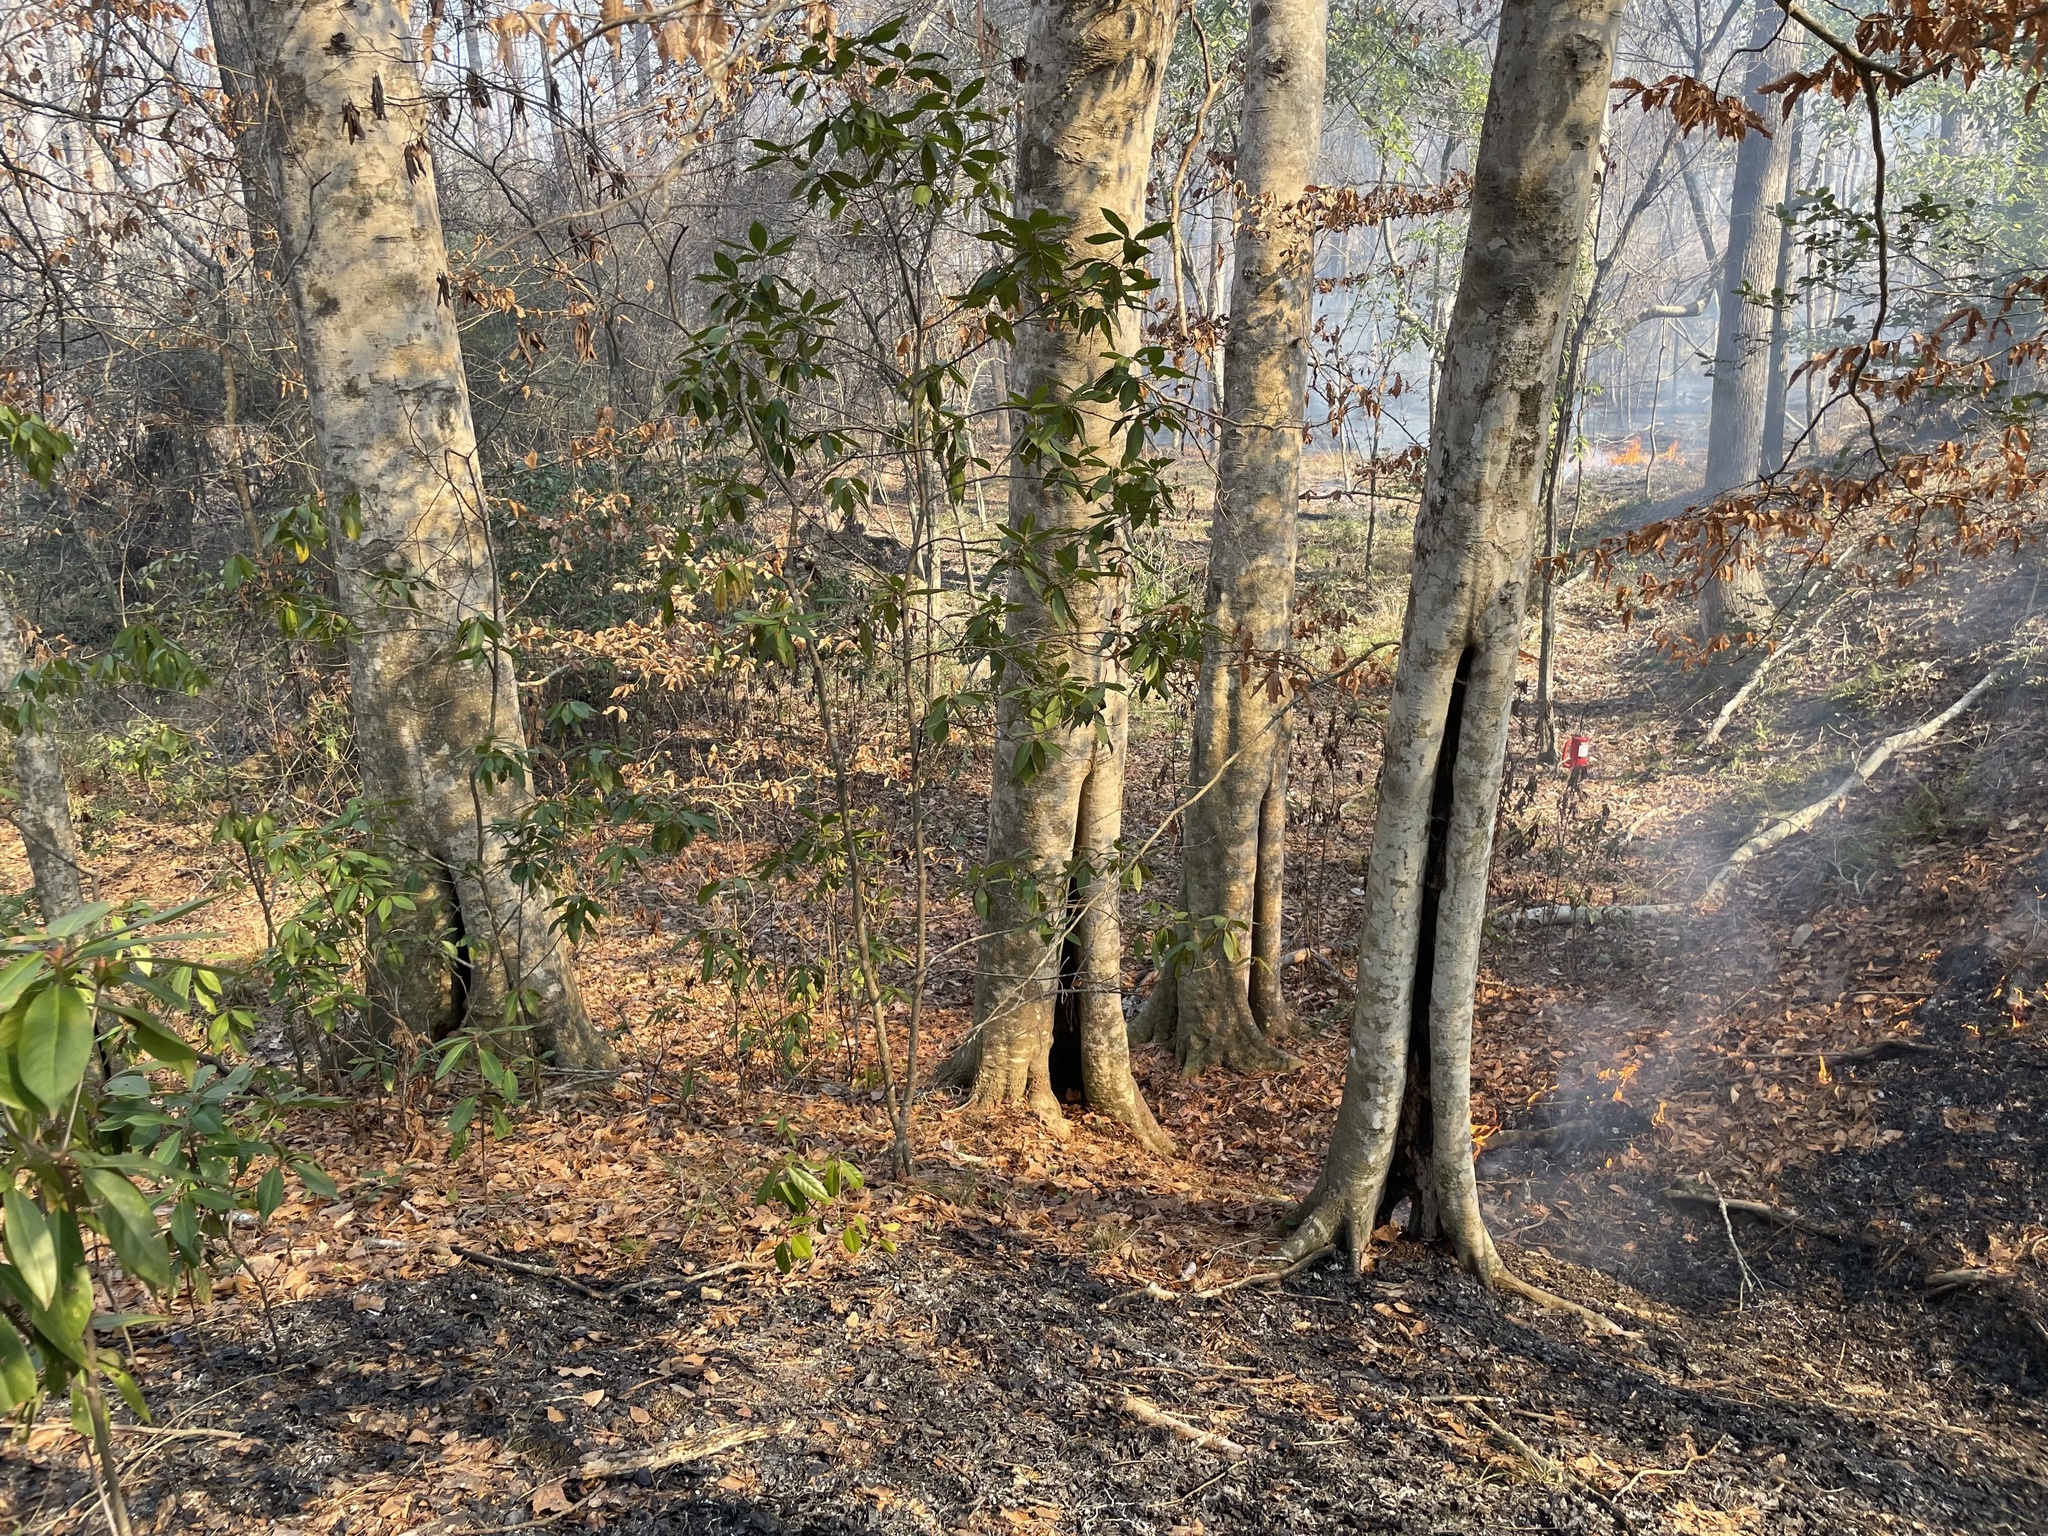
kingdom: Plantae
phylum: Tracheophyta
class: Magnoliopsida
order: Fagales
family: Fagaceae
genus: Fagus
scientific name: Fagus grandifolia
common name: American beech
